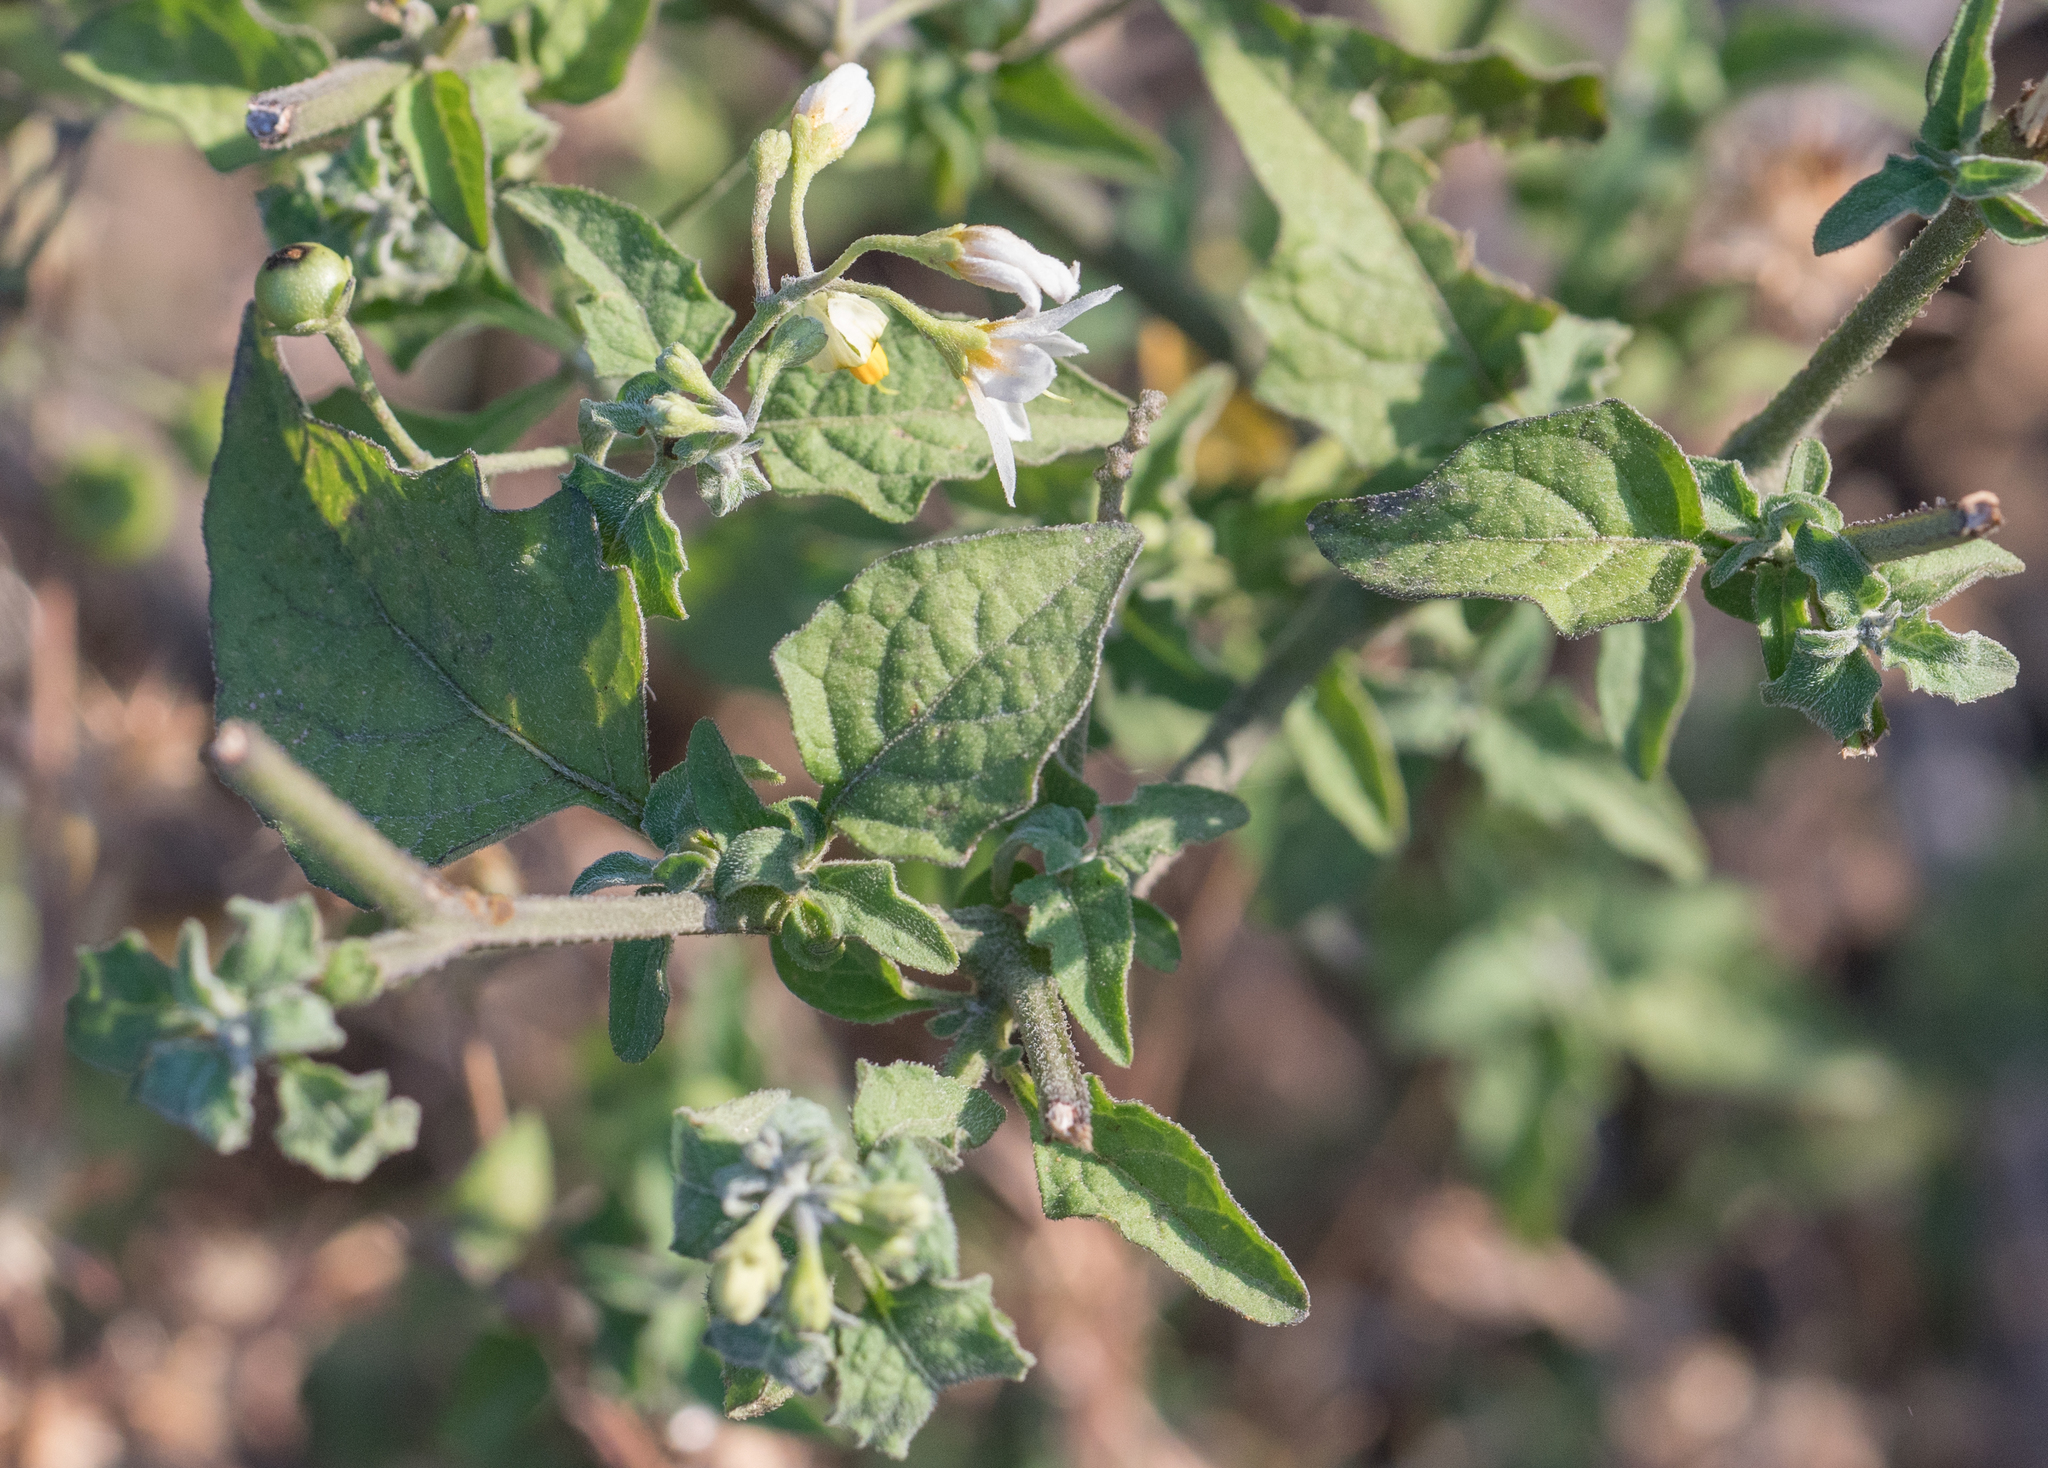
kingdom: Plantae
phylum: Tracheophyta
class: Magnoliopsida
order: Solanales
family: Solanaceae
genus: Solanum
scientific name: Solanum douglasii
